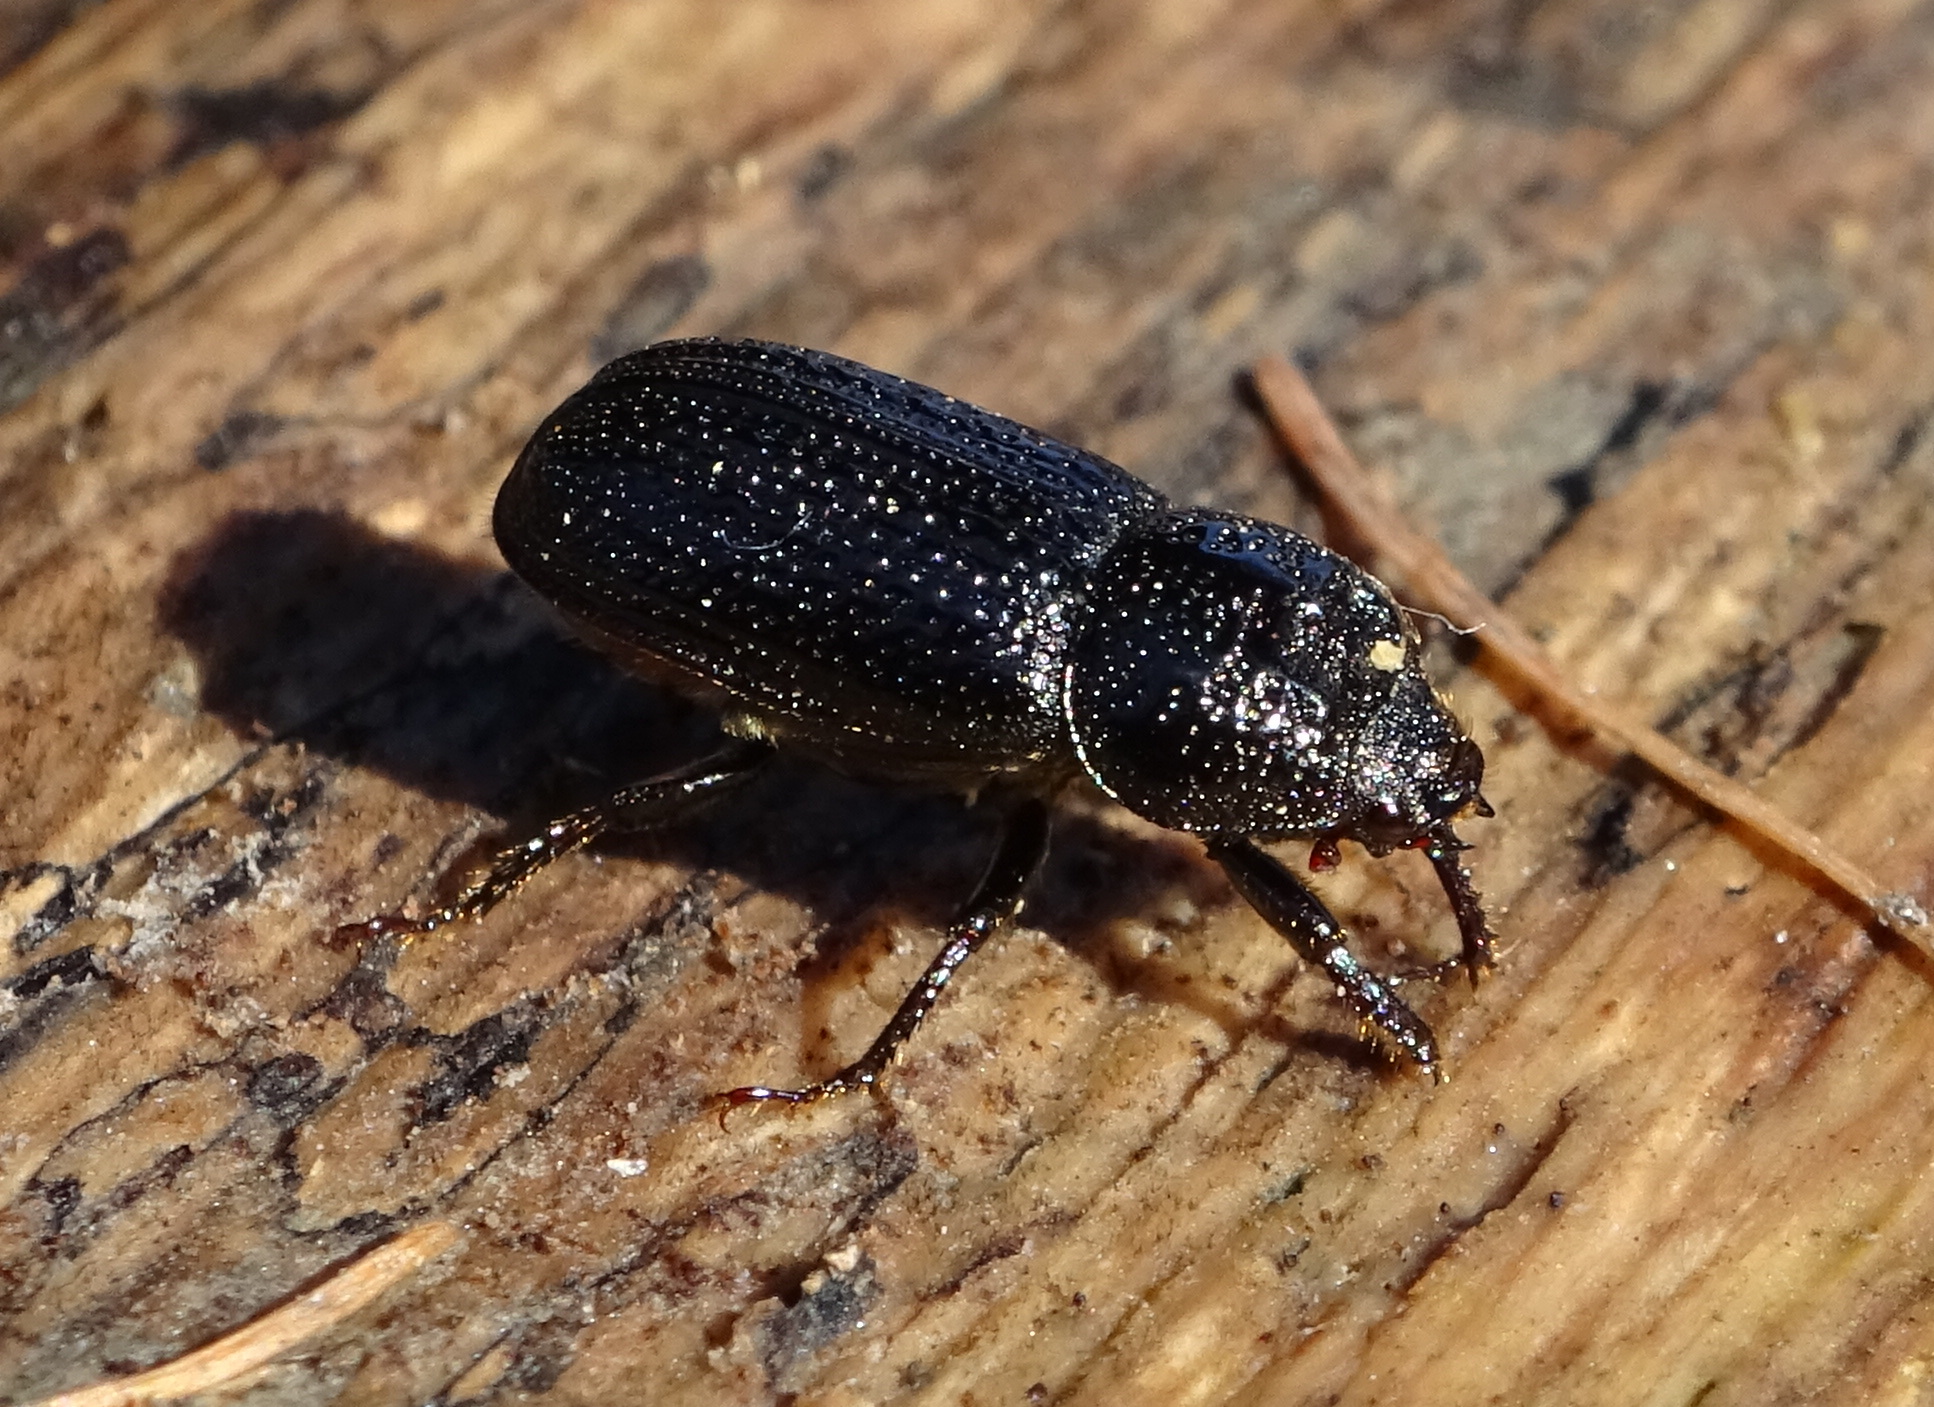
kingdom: Animalia
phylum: Arthropoda
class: Insecta
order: Coleoptera
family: Lucanidae
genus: Sinodendron
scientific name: Sinodendron cylindricum
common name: Rhinoceros beetle
